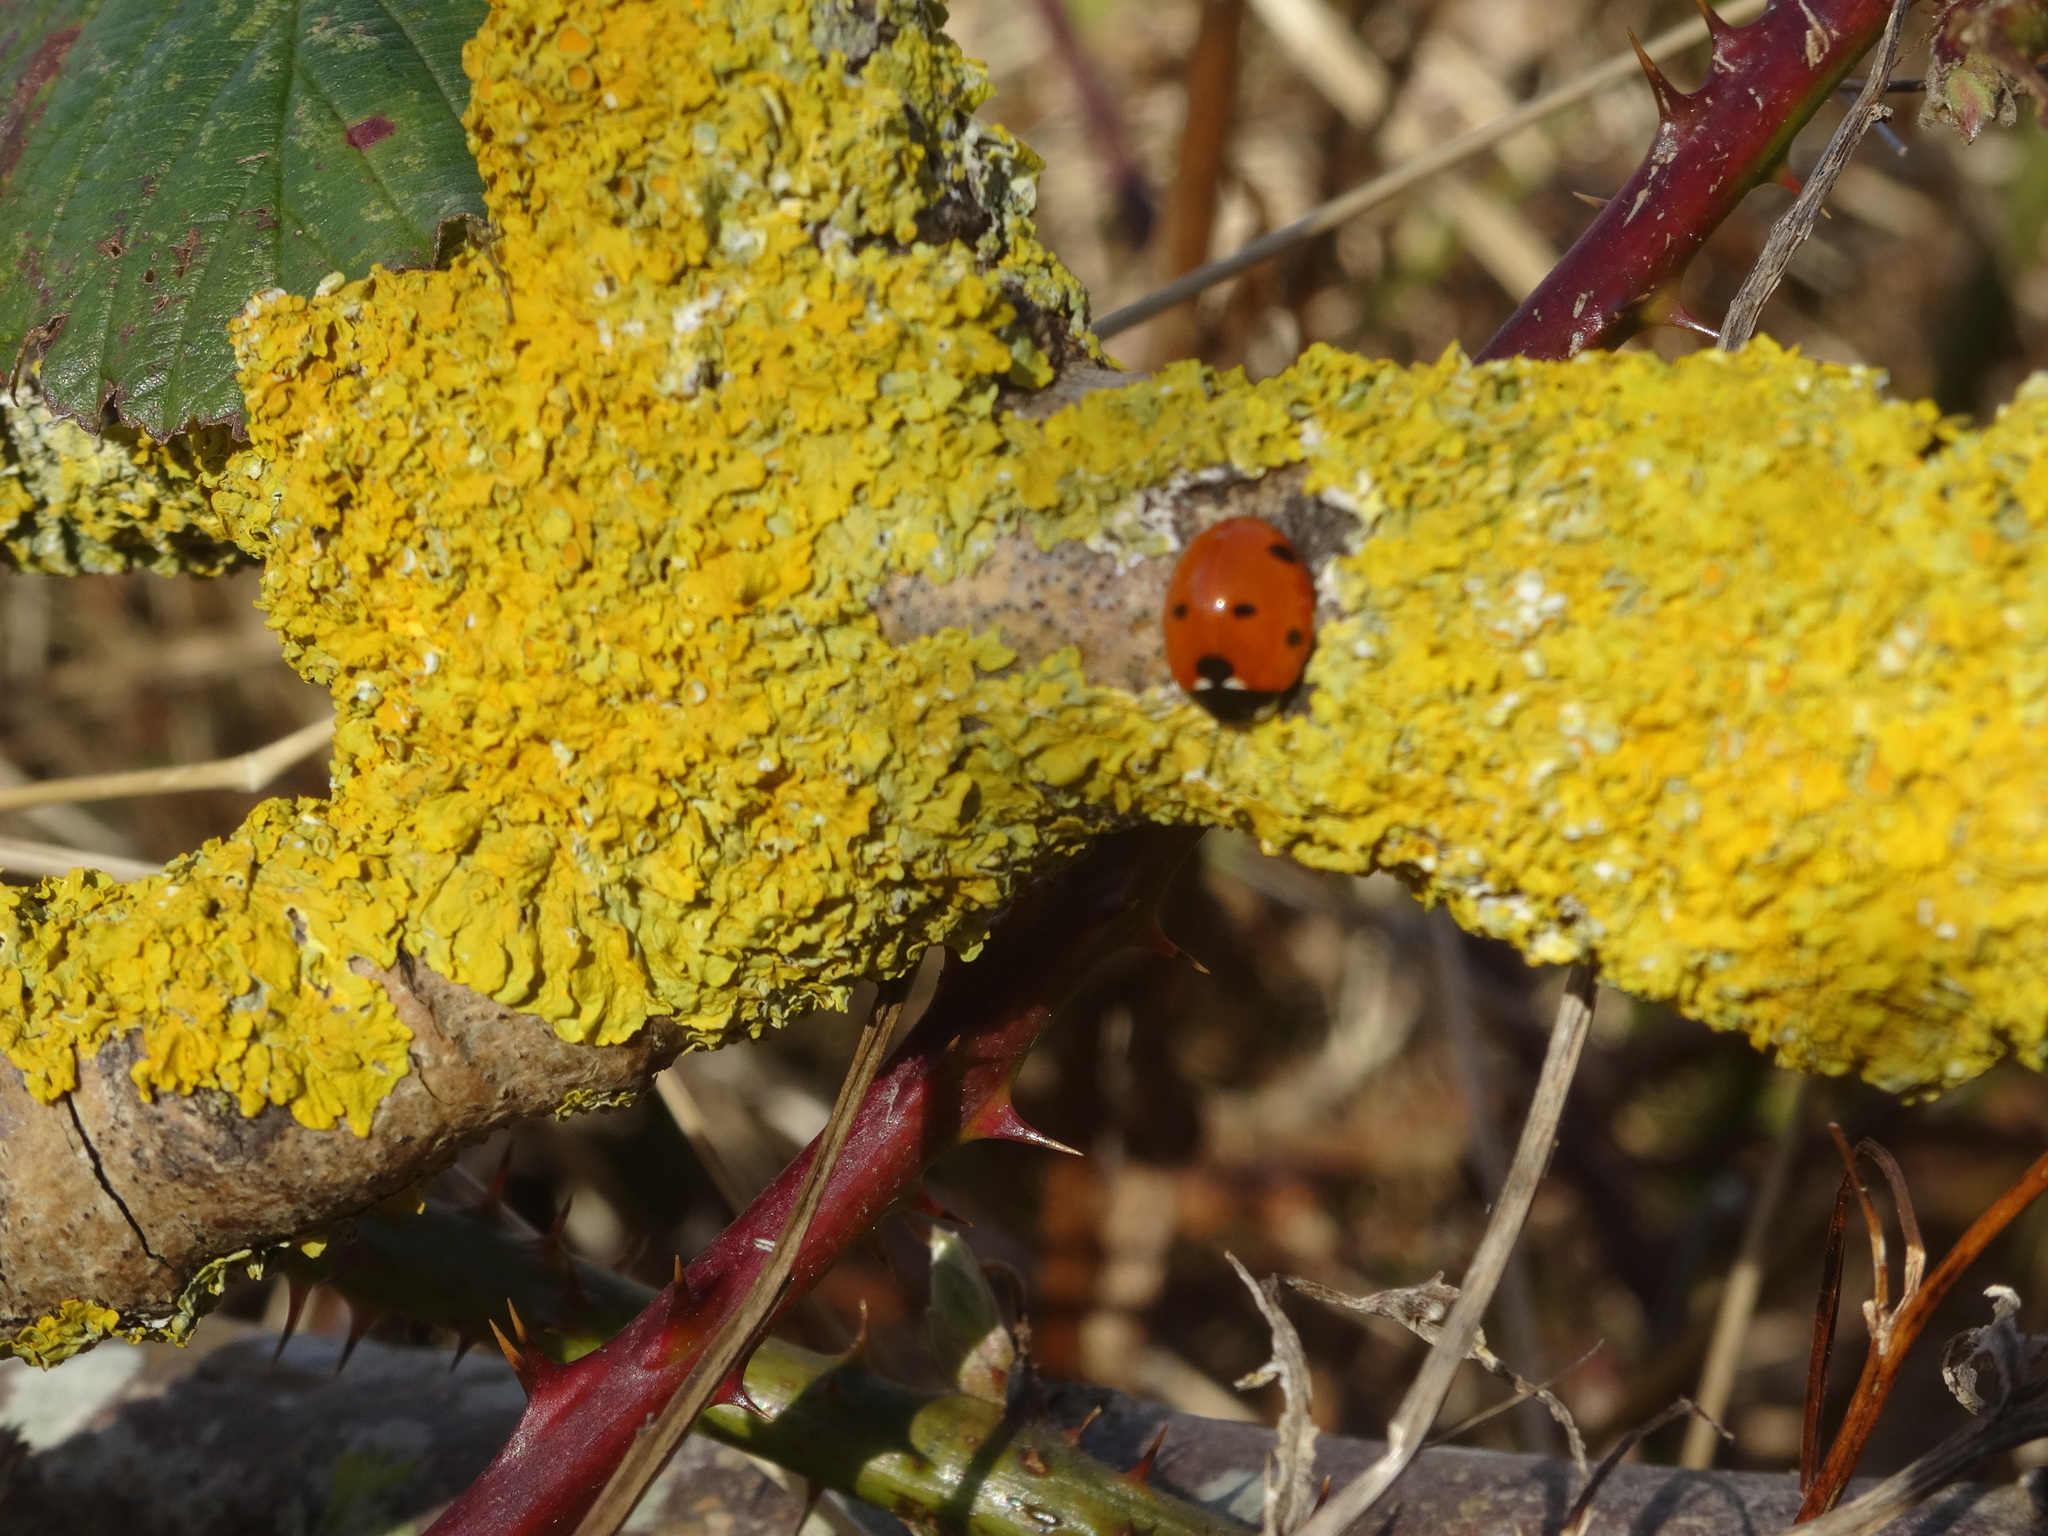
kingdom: Animalia
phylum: Arthropoda
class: Insecta
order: Coleoptera
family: Coccinellidae
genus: Coccinella
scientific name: Coccinella septempunctata
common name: Sevenspotted lady beetle
